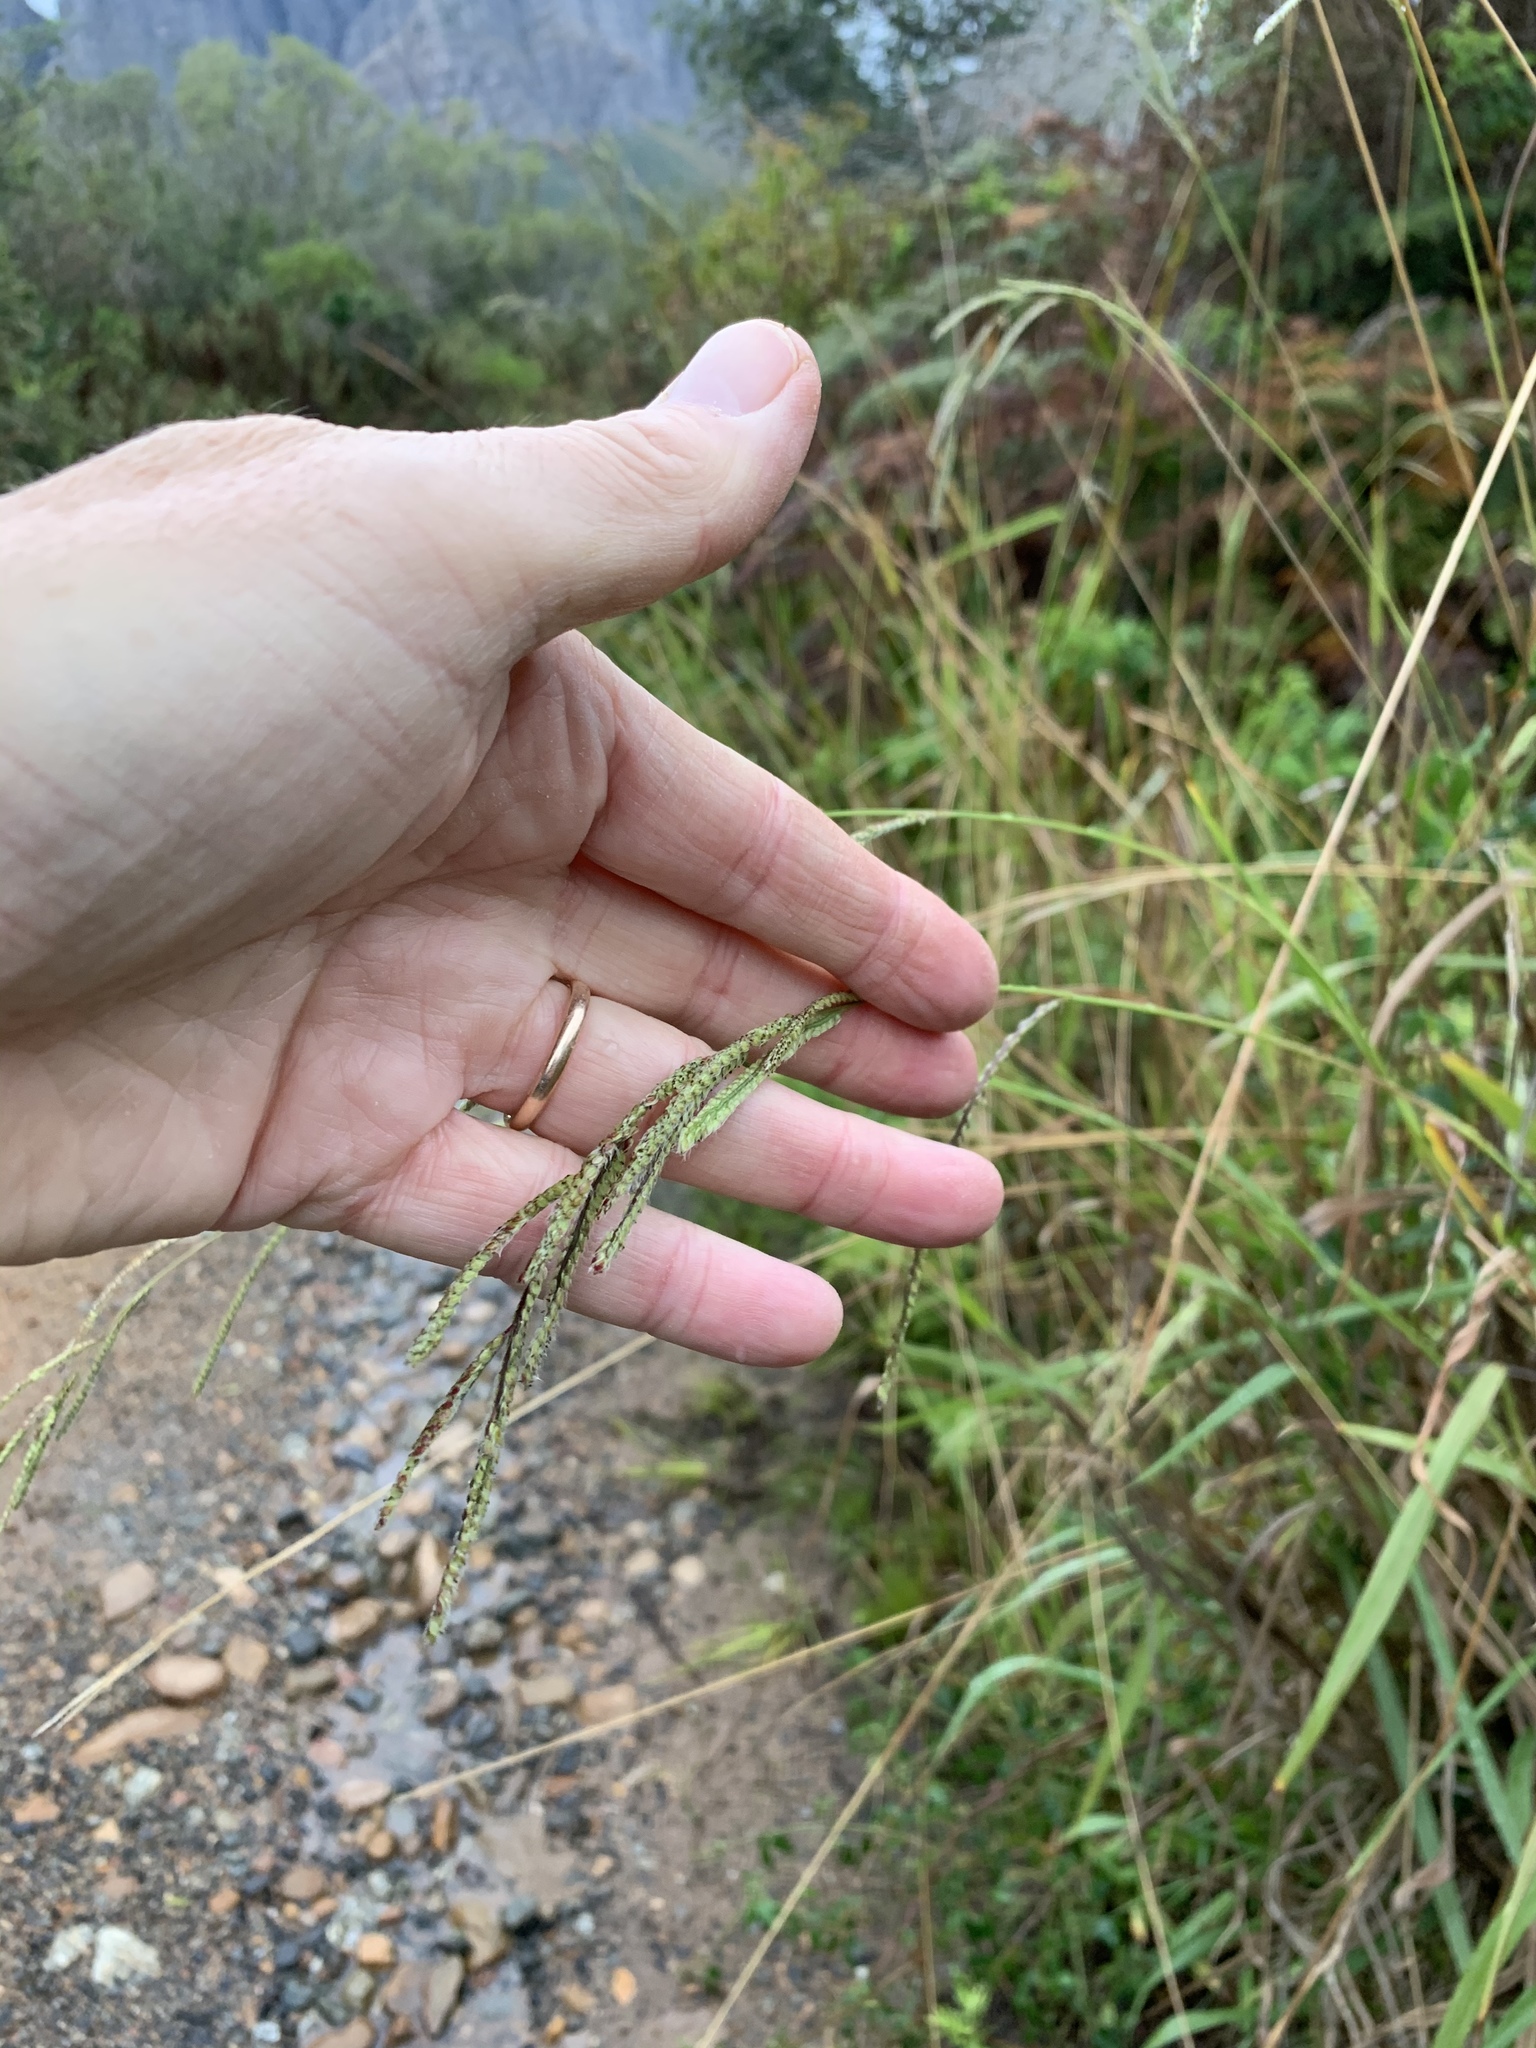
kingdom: Plantae
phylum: Tracheophyta
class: Liliopsida
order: Poales
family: Poaceae
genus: Paspalum
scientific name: Paspalum urvillei
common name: Vasey's grass
